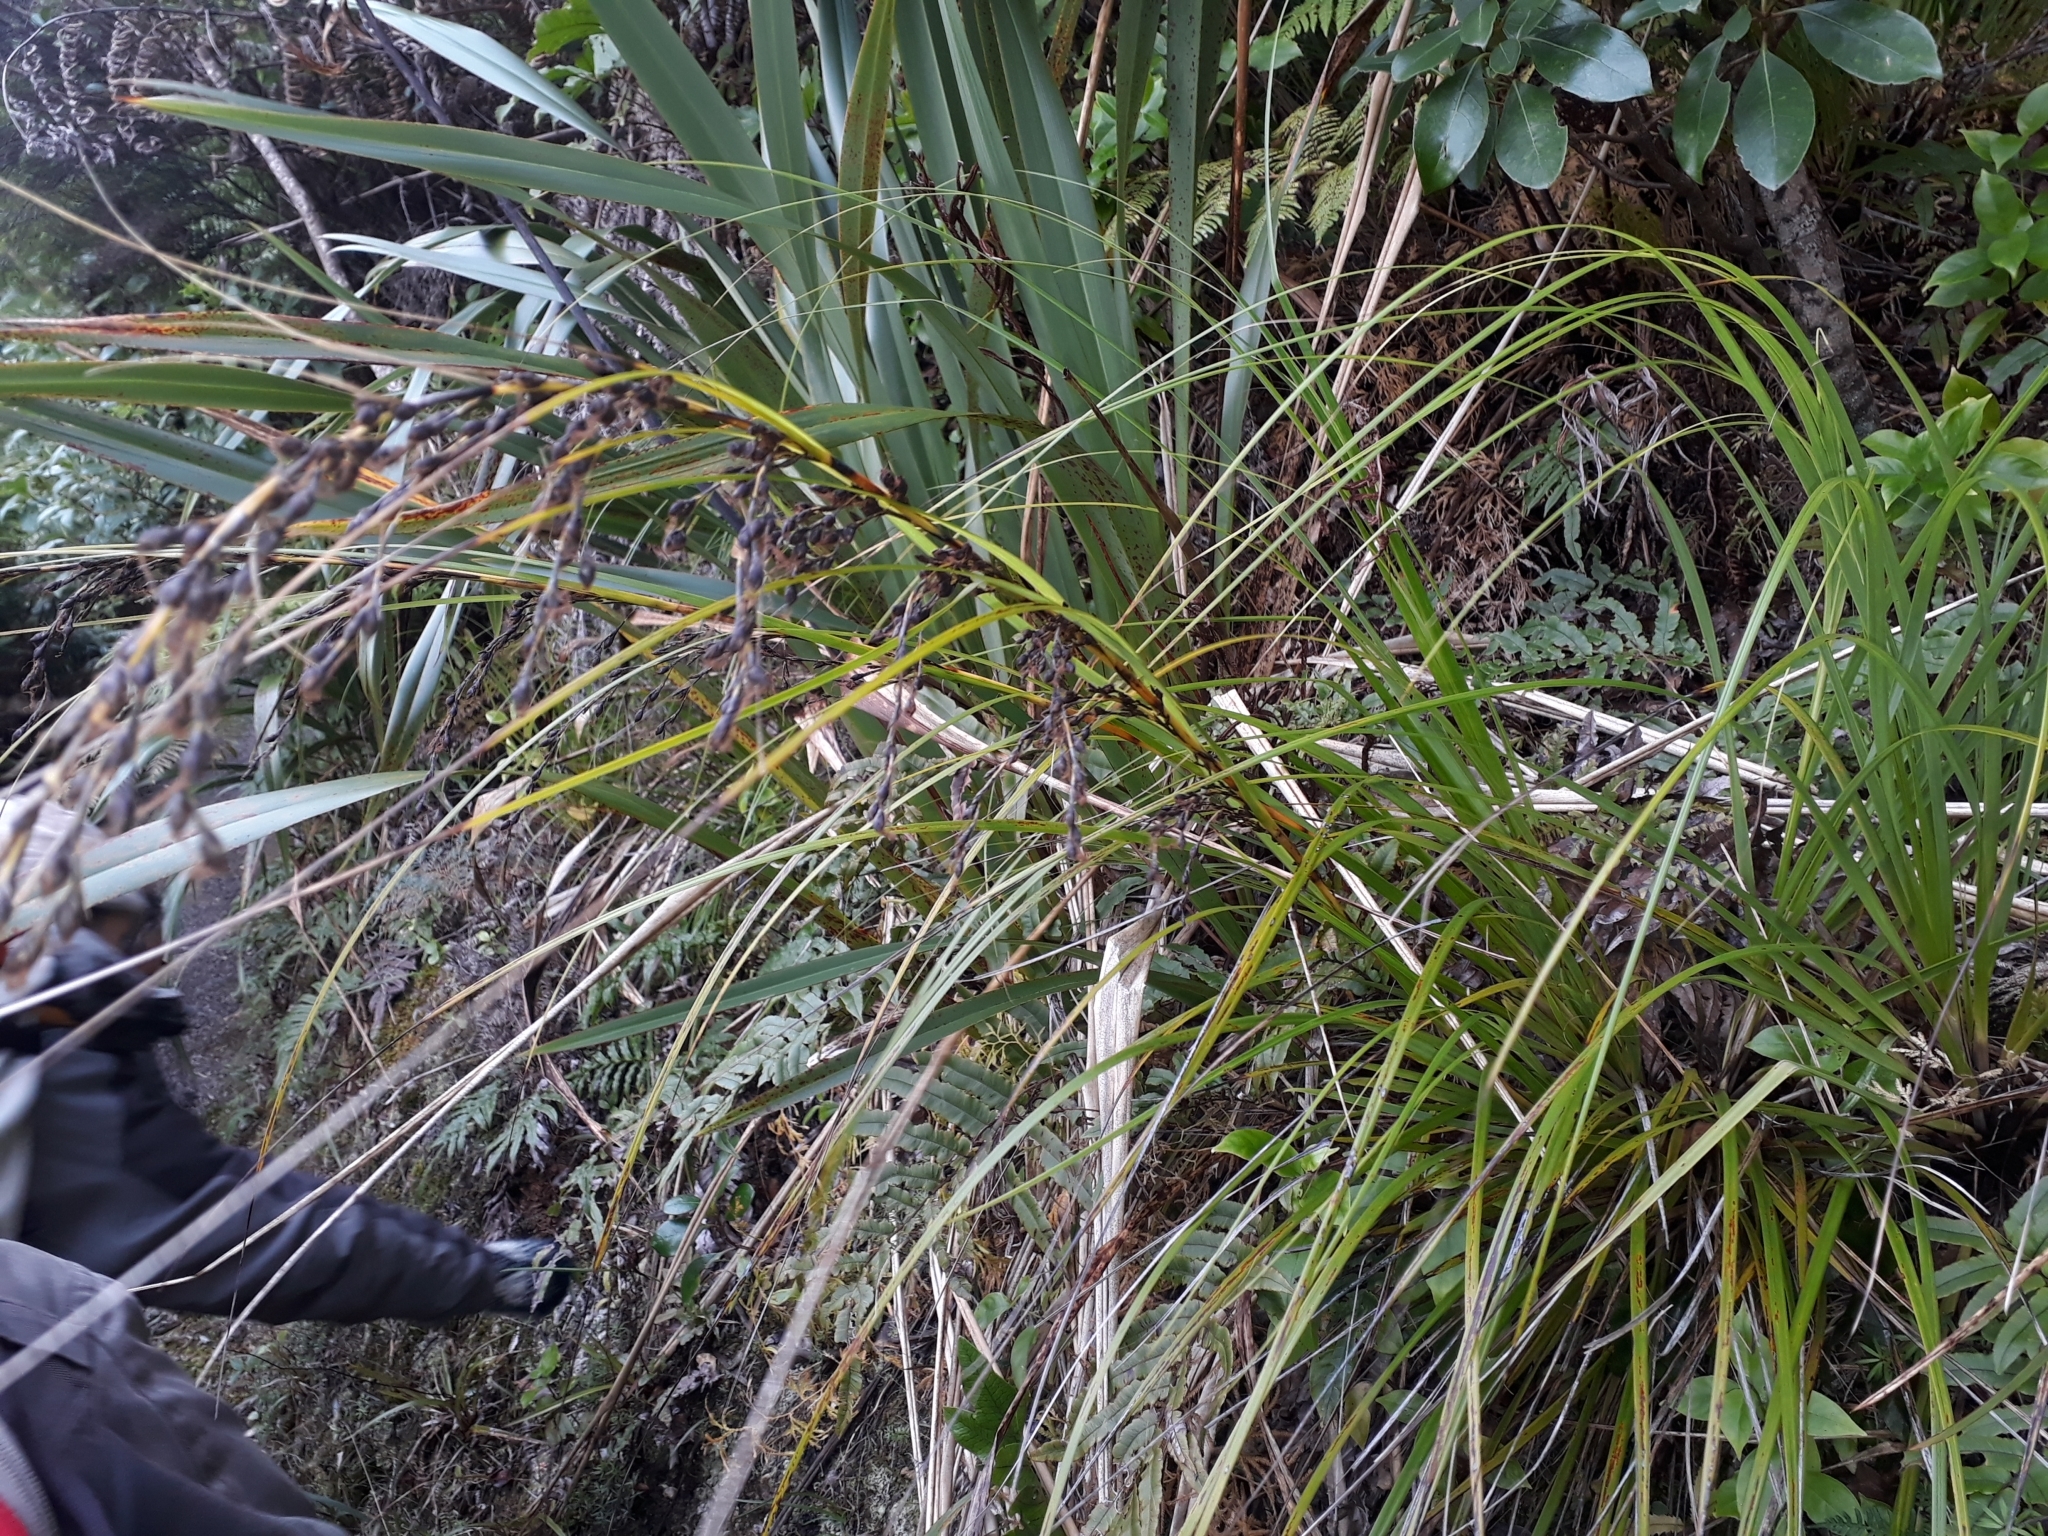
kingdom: Plantae
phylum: Tracheophyta
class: Liliopsida
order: Poales
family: Cyperaceae
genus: Gahnia
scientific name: Gahnia pauciflora
